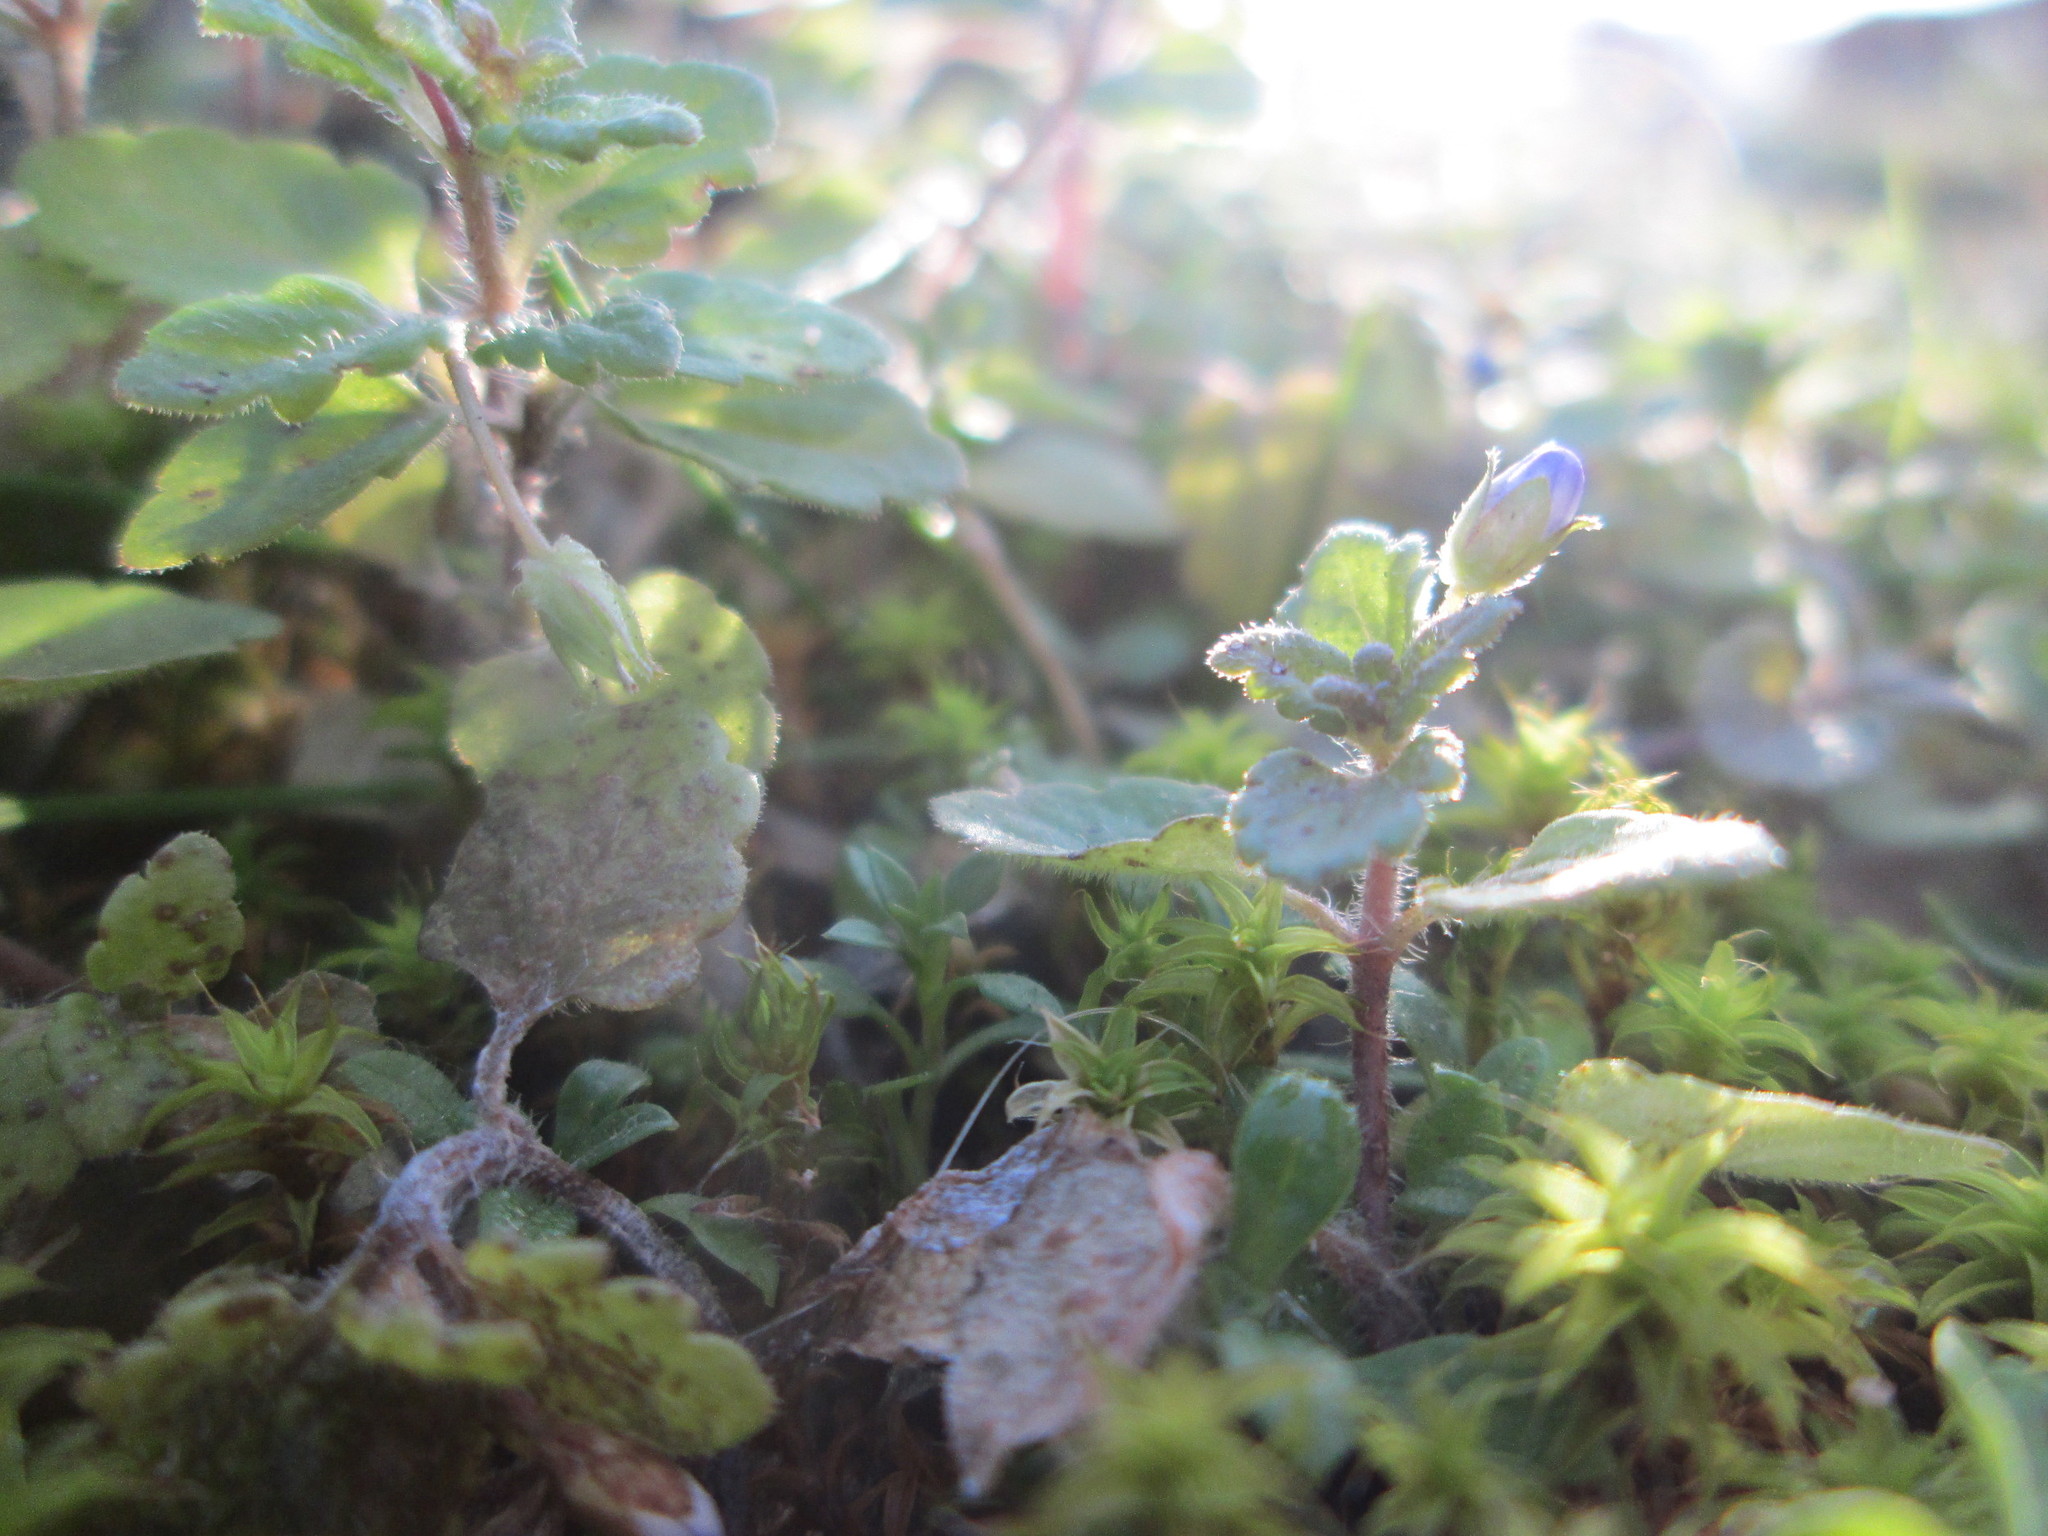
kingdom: Plantae
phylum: Tracheophyta
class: Magnoliopsida
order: Lamiales
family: Plantaginaceae
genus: Veronica
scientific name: Veronica persica
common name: Common field-speedwell
